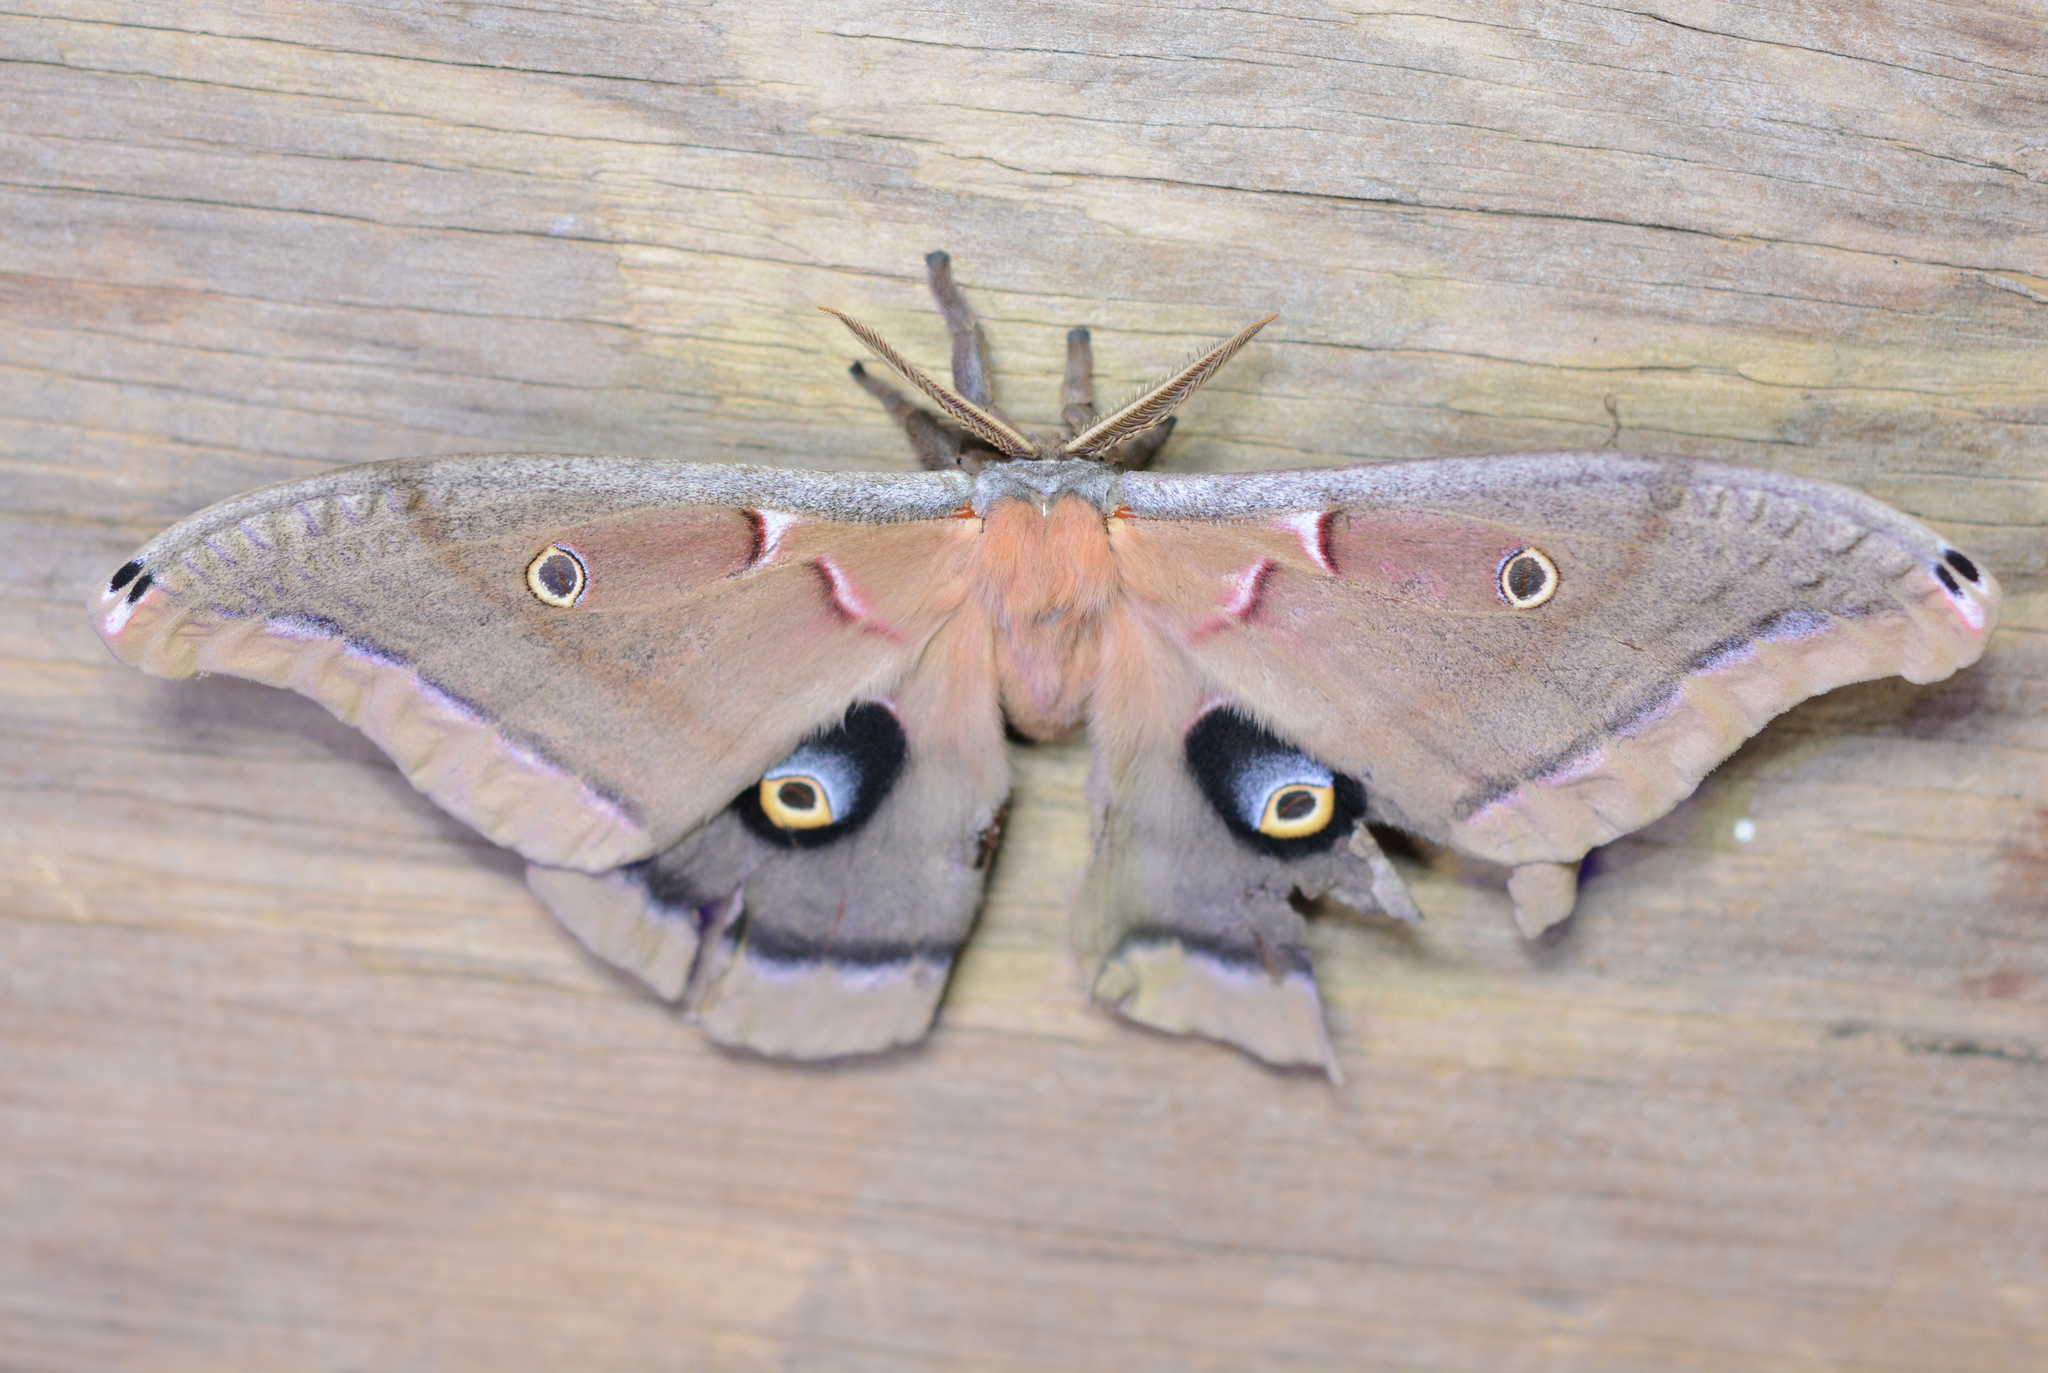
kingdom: Animalia
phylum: Arthropoda
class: Insecta
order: Lepidoptera
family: Saturniidae
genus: Antheraea
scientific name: Antheraea polyphemus
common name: Polyphemus moth
